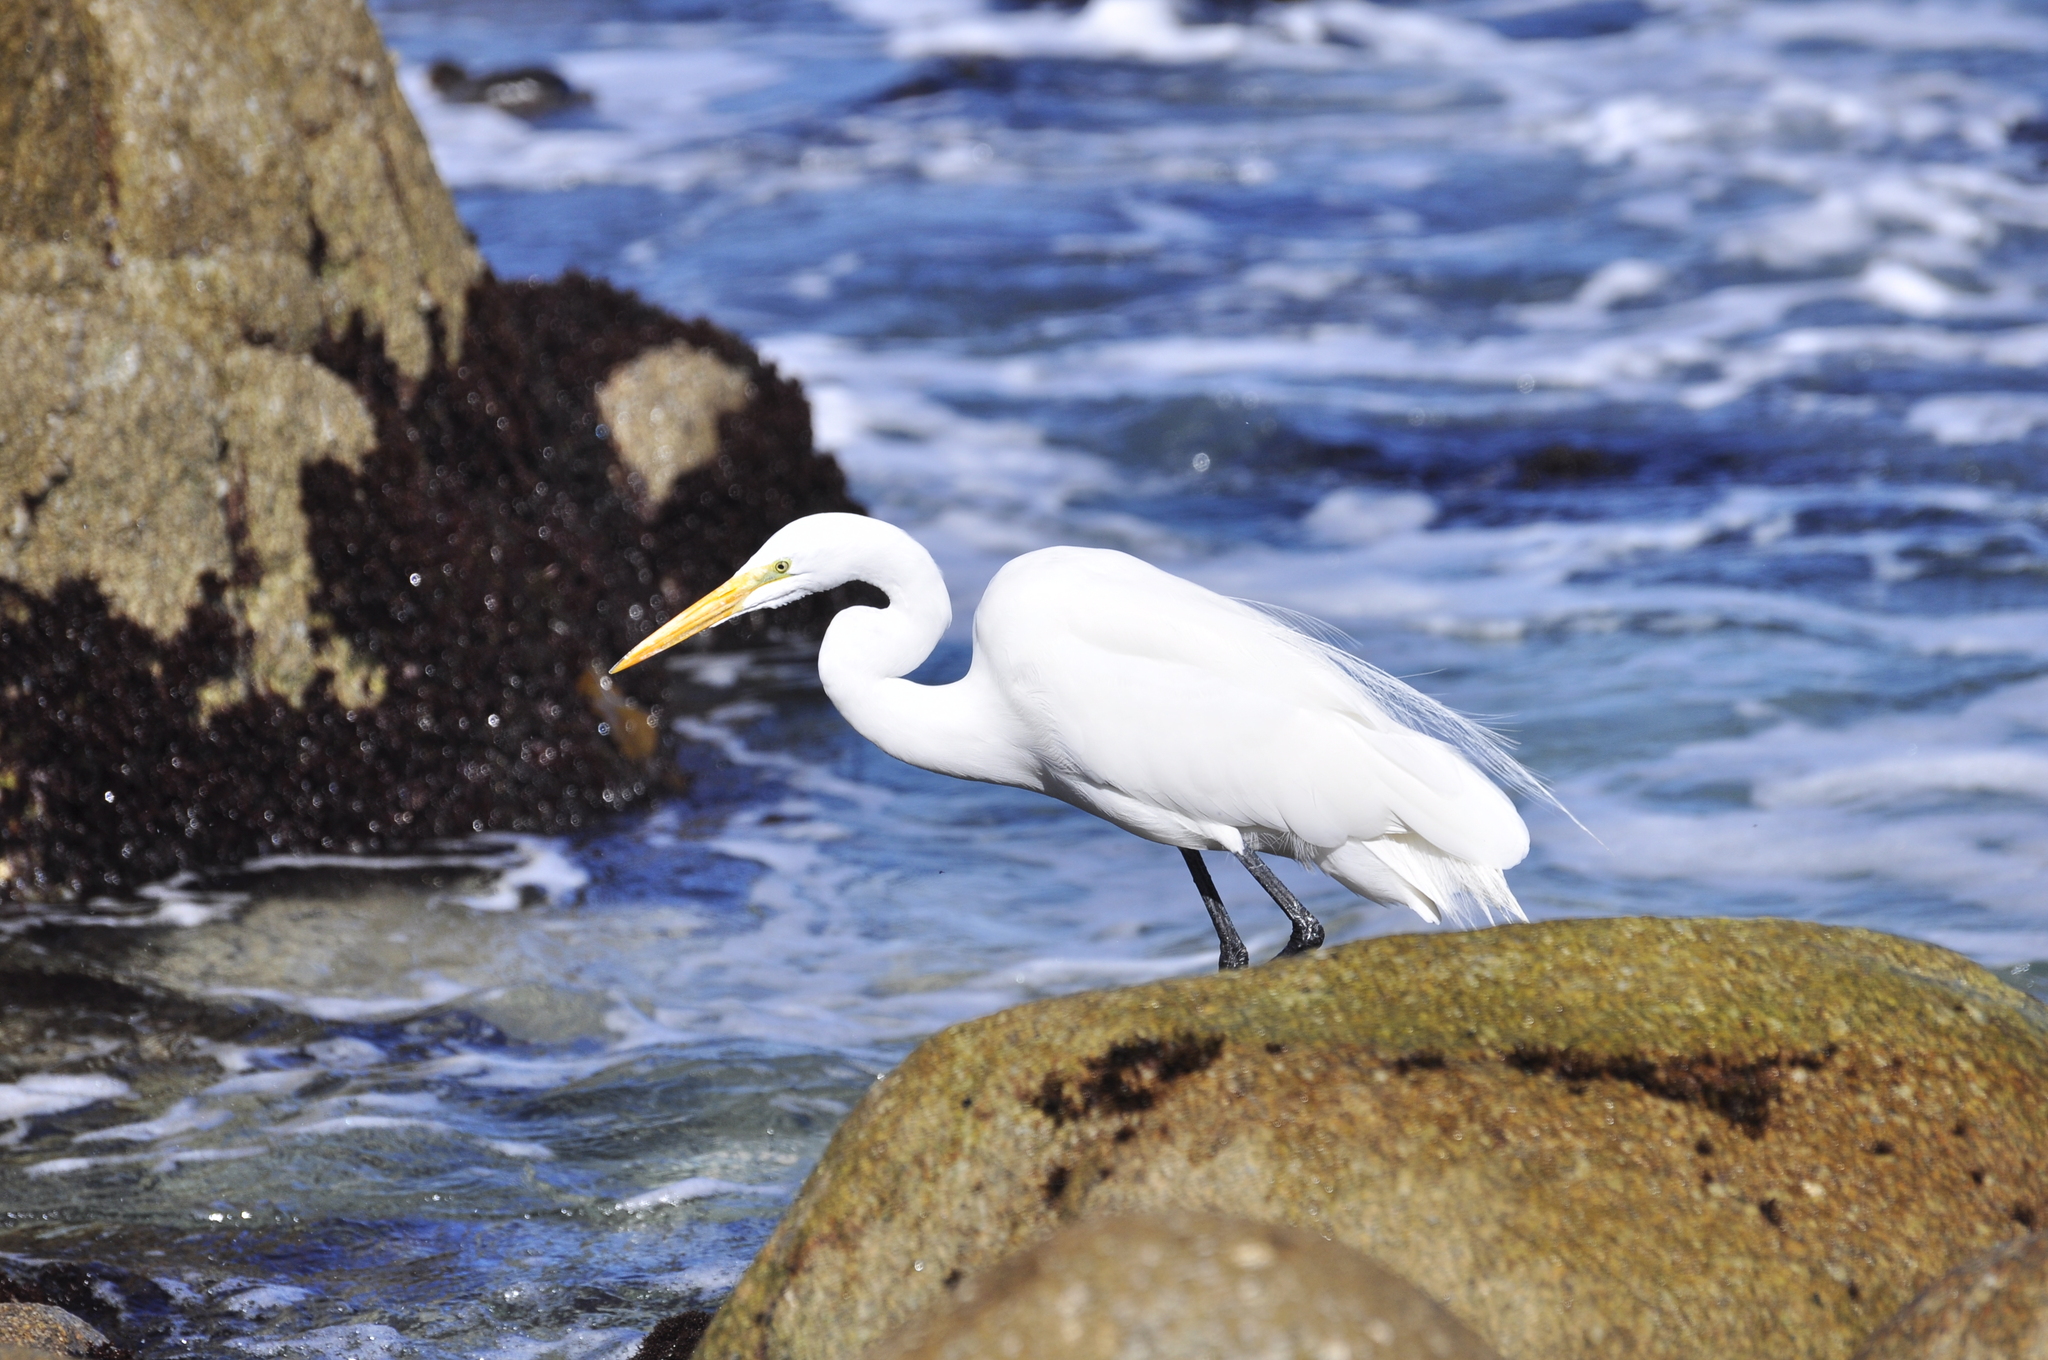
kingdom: Animalia
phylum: Chordata
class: Aves
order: Pelecaniformes
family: Ardeidae
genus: Ardea
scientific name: Ardea alba
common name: Great egret
